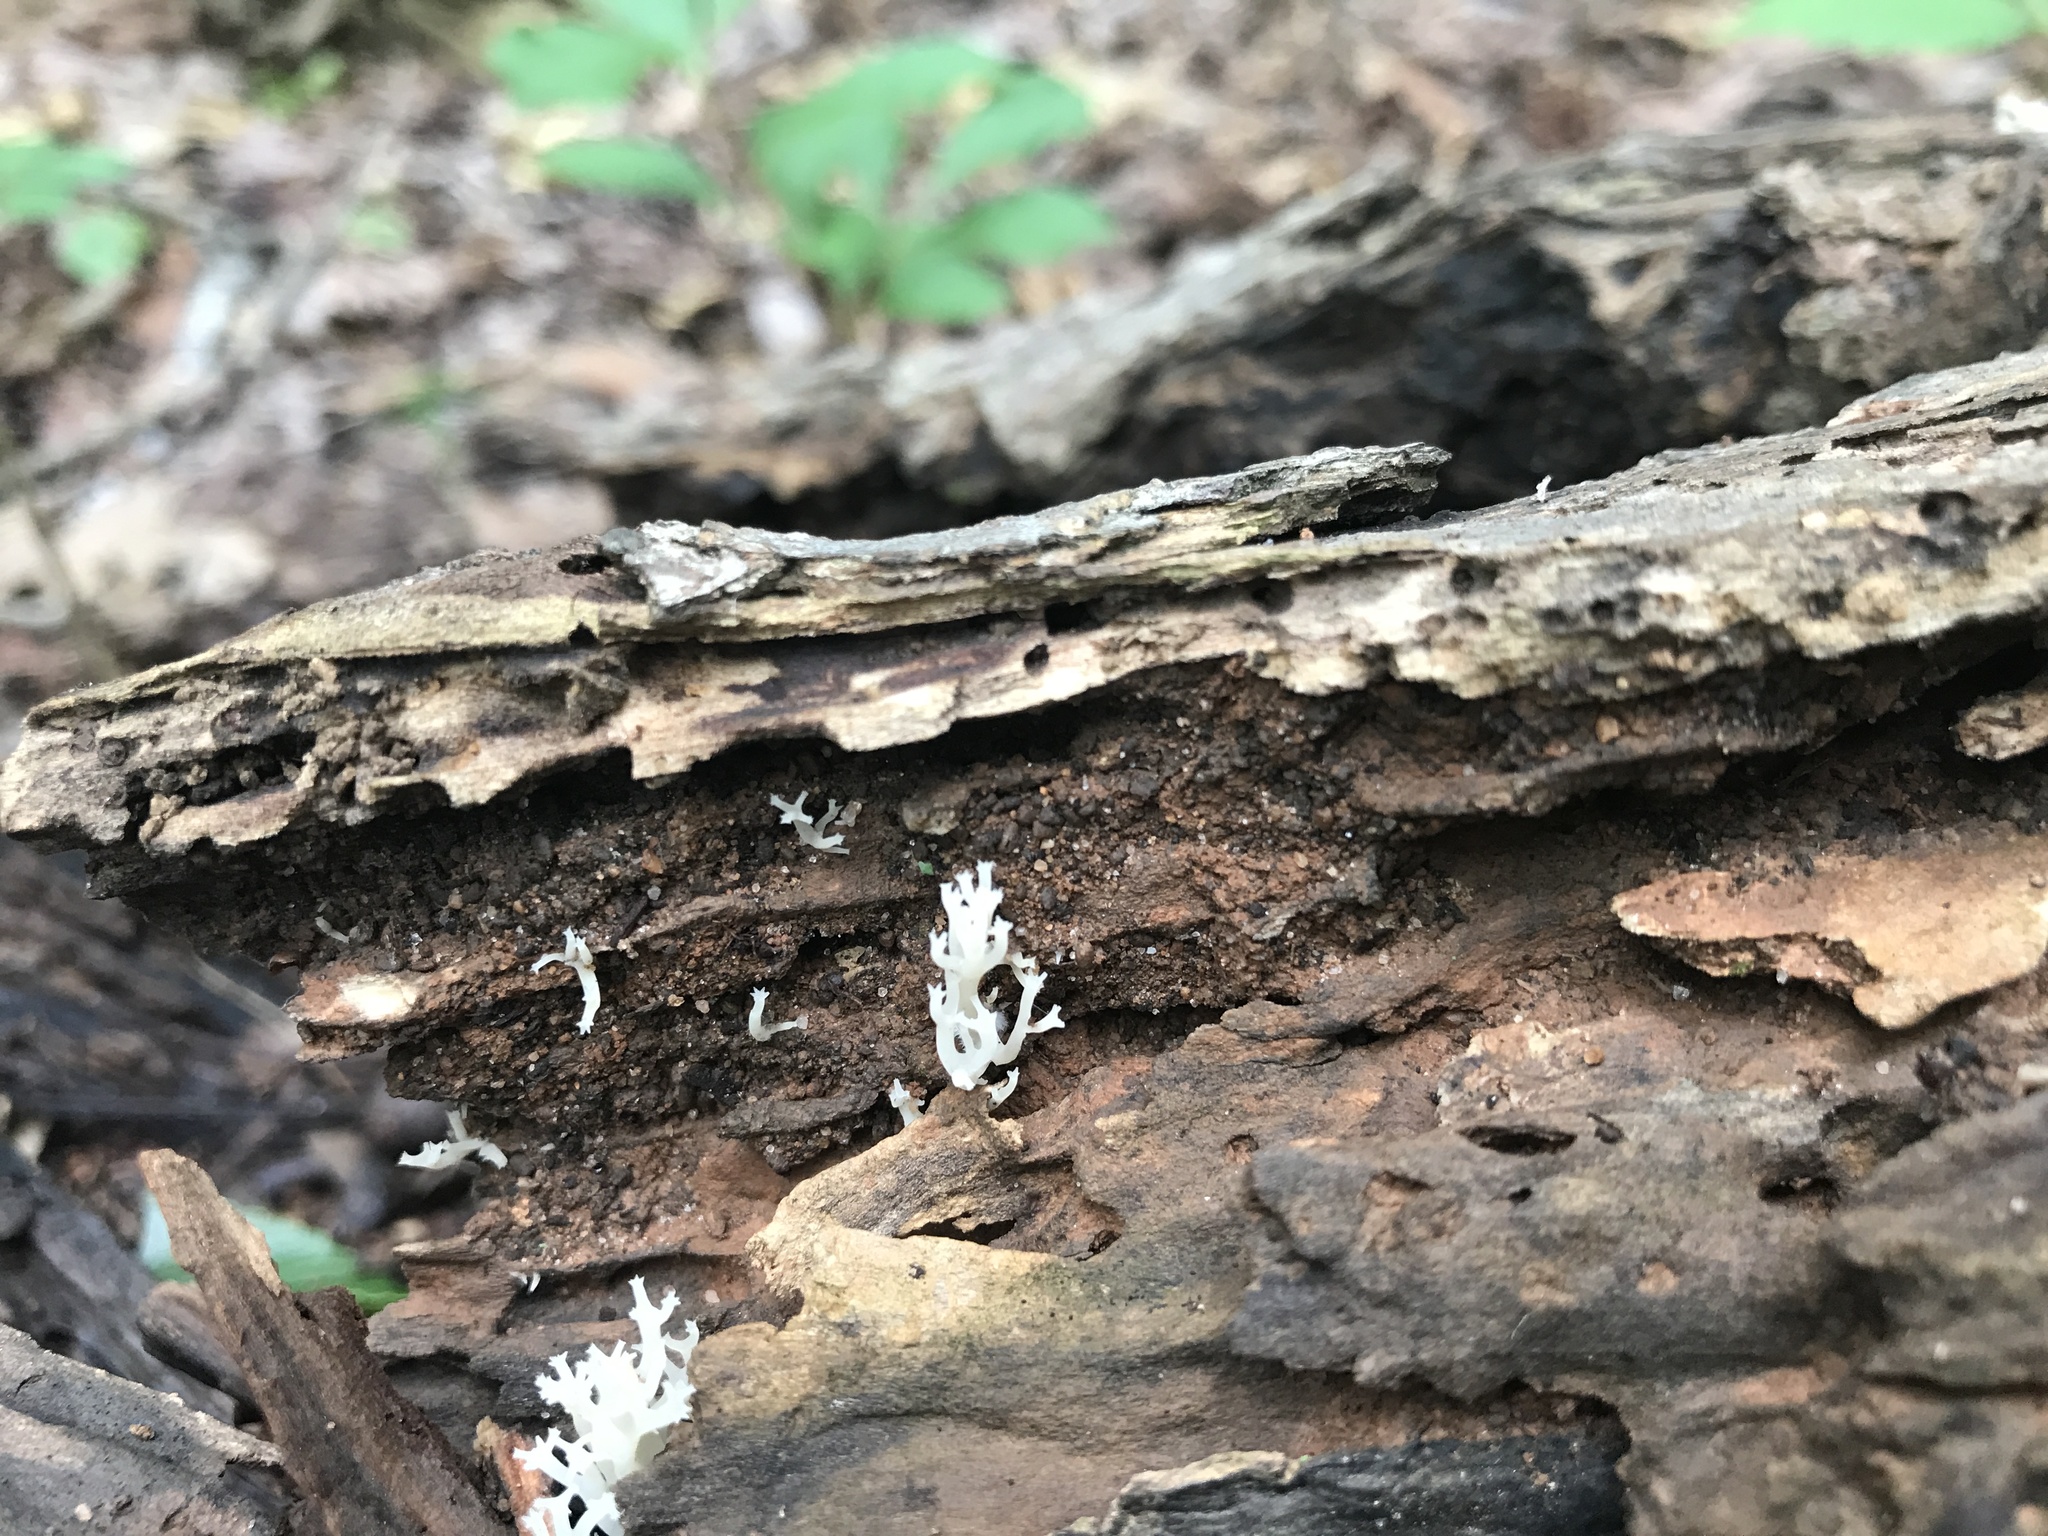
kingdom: Fungi
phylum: Basidiomycota
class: Agaricomycetes
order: Russulales
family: Auriscalpiaceae
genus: Artomyces
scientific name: Artomyces pyxidatus
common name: Crown-tipped coral fungus
